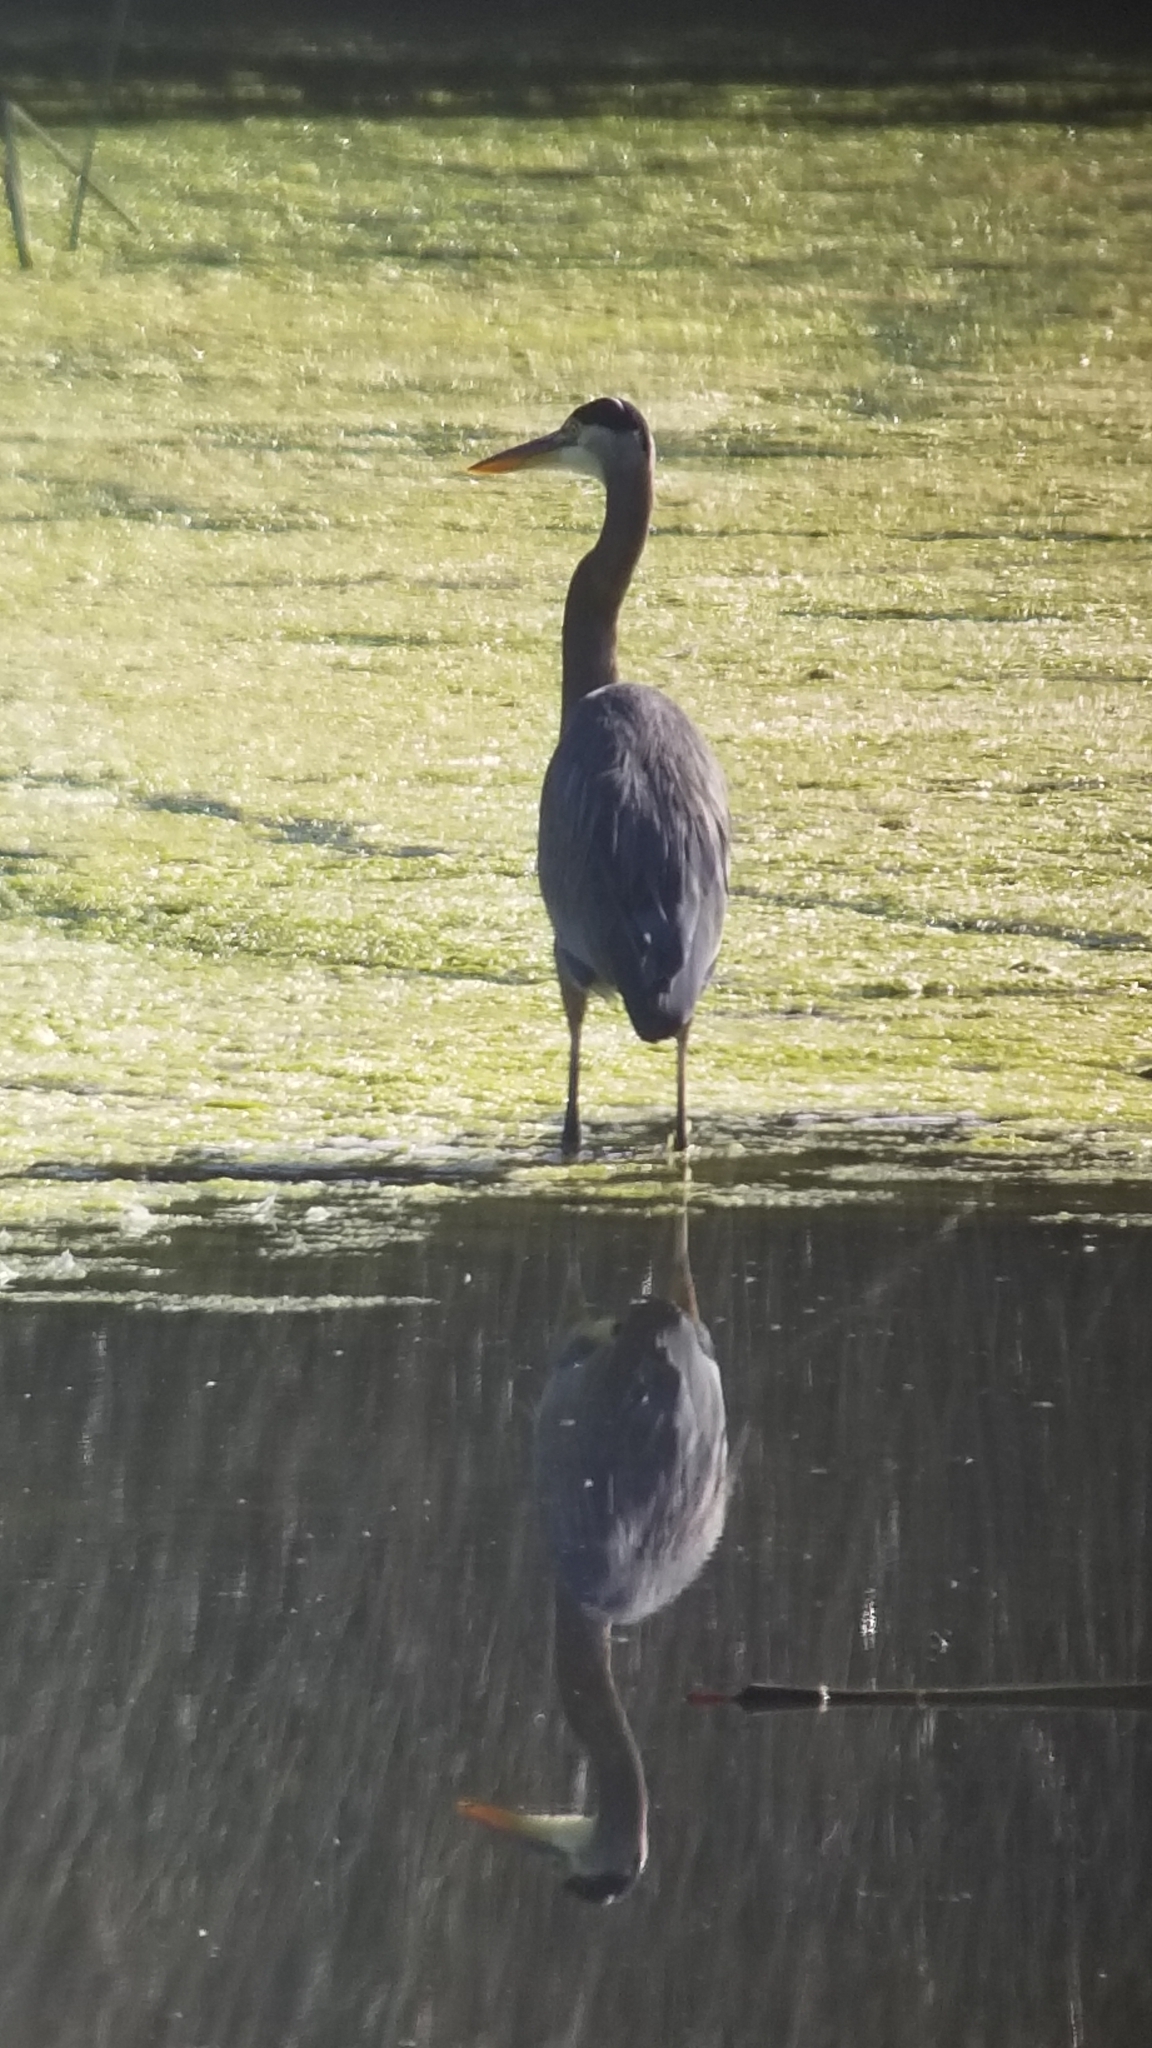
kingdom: Animalia
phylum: Chordata
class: Aves
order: Pelecaniformes
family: Ardeidae
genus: Ardea
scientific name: Ardea herodias
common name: Great blue heron
